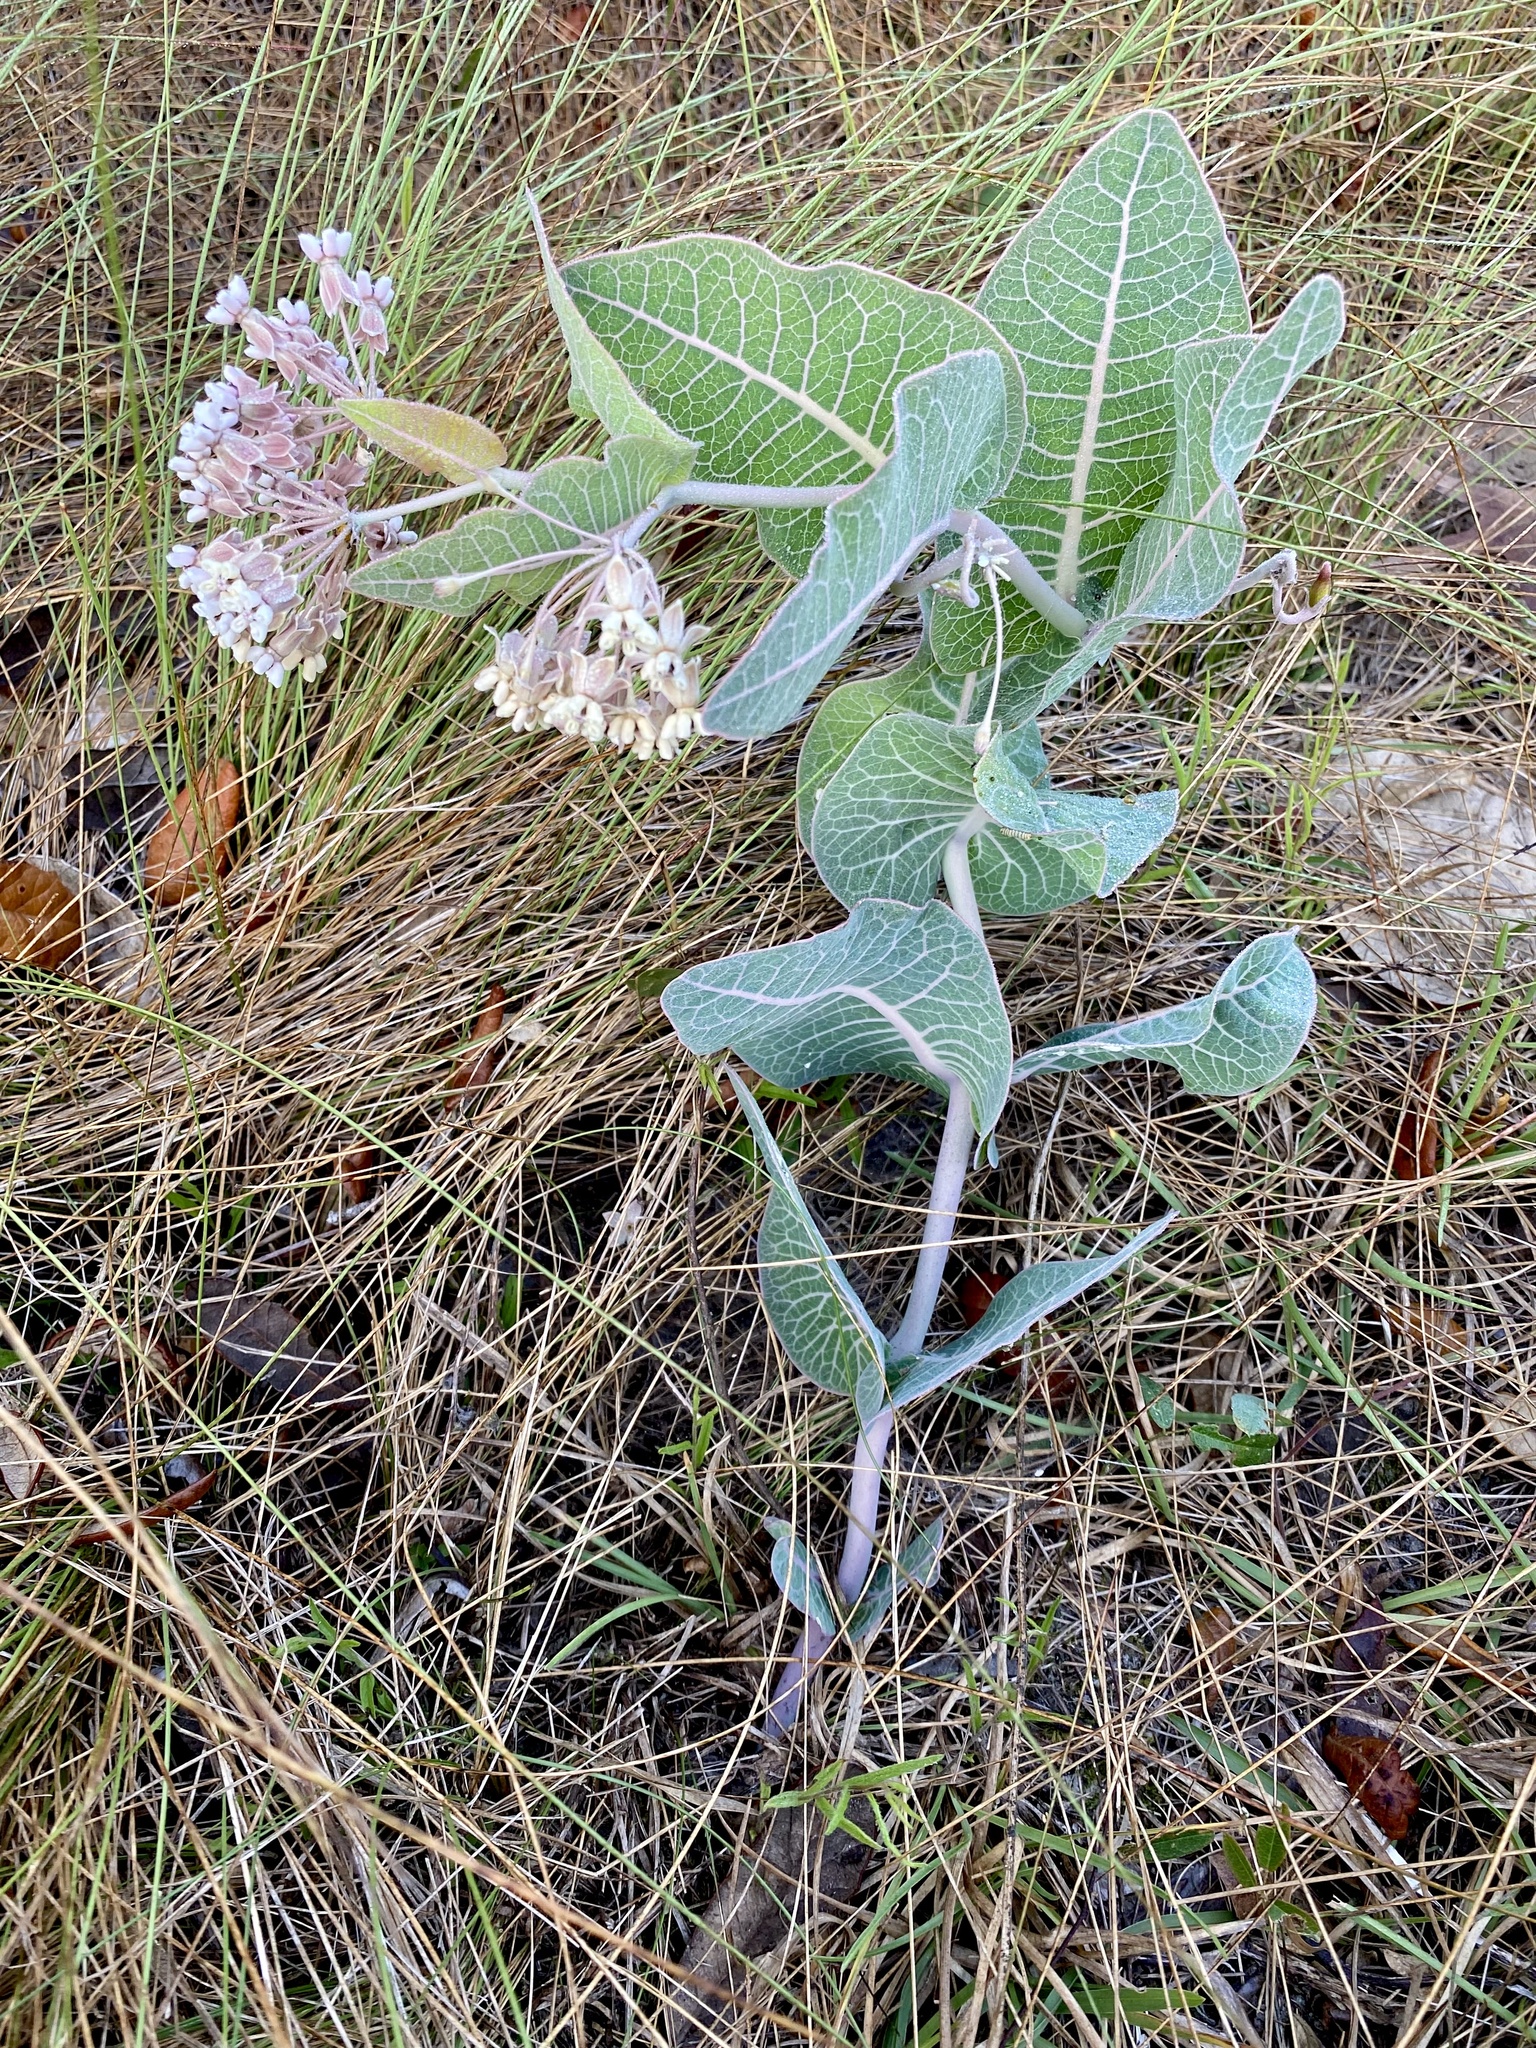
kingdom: Plantae
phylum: Tracheophyta
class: Magnoliopsida
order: Gentianales
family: Apocynaceae
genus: Asclepias
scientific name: Asclepias humistrata
